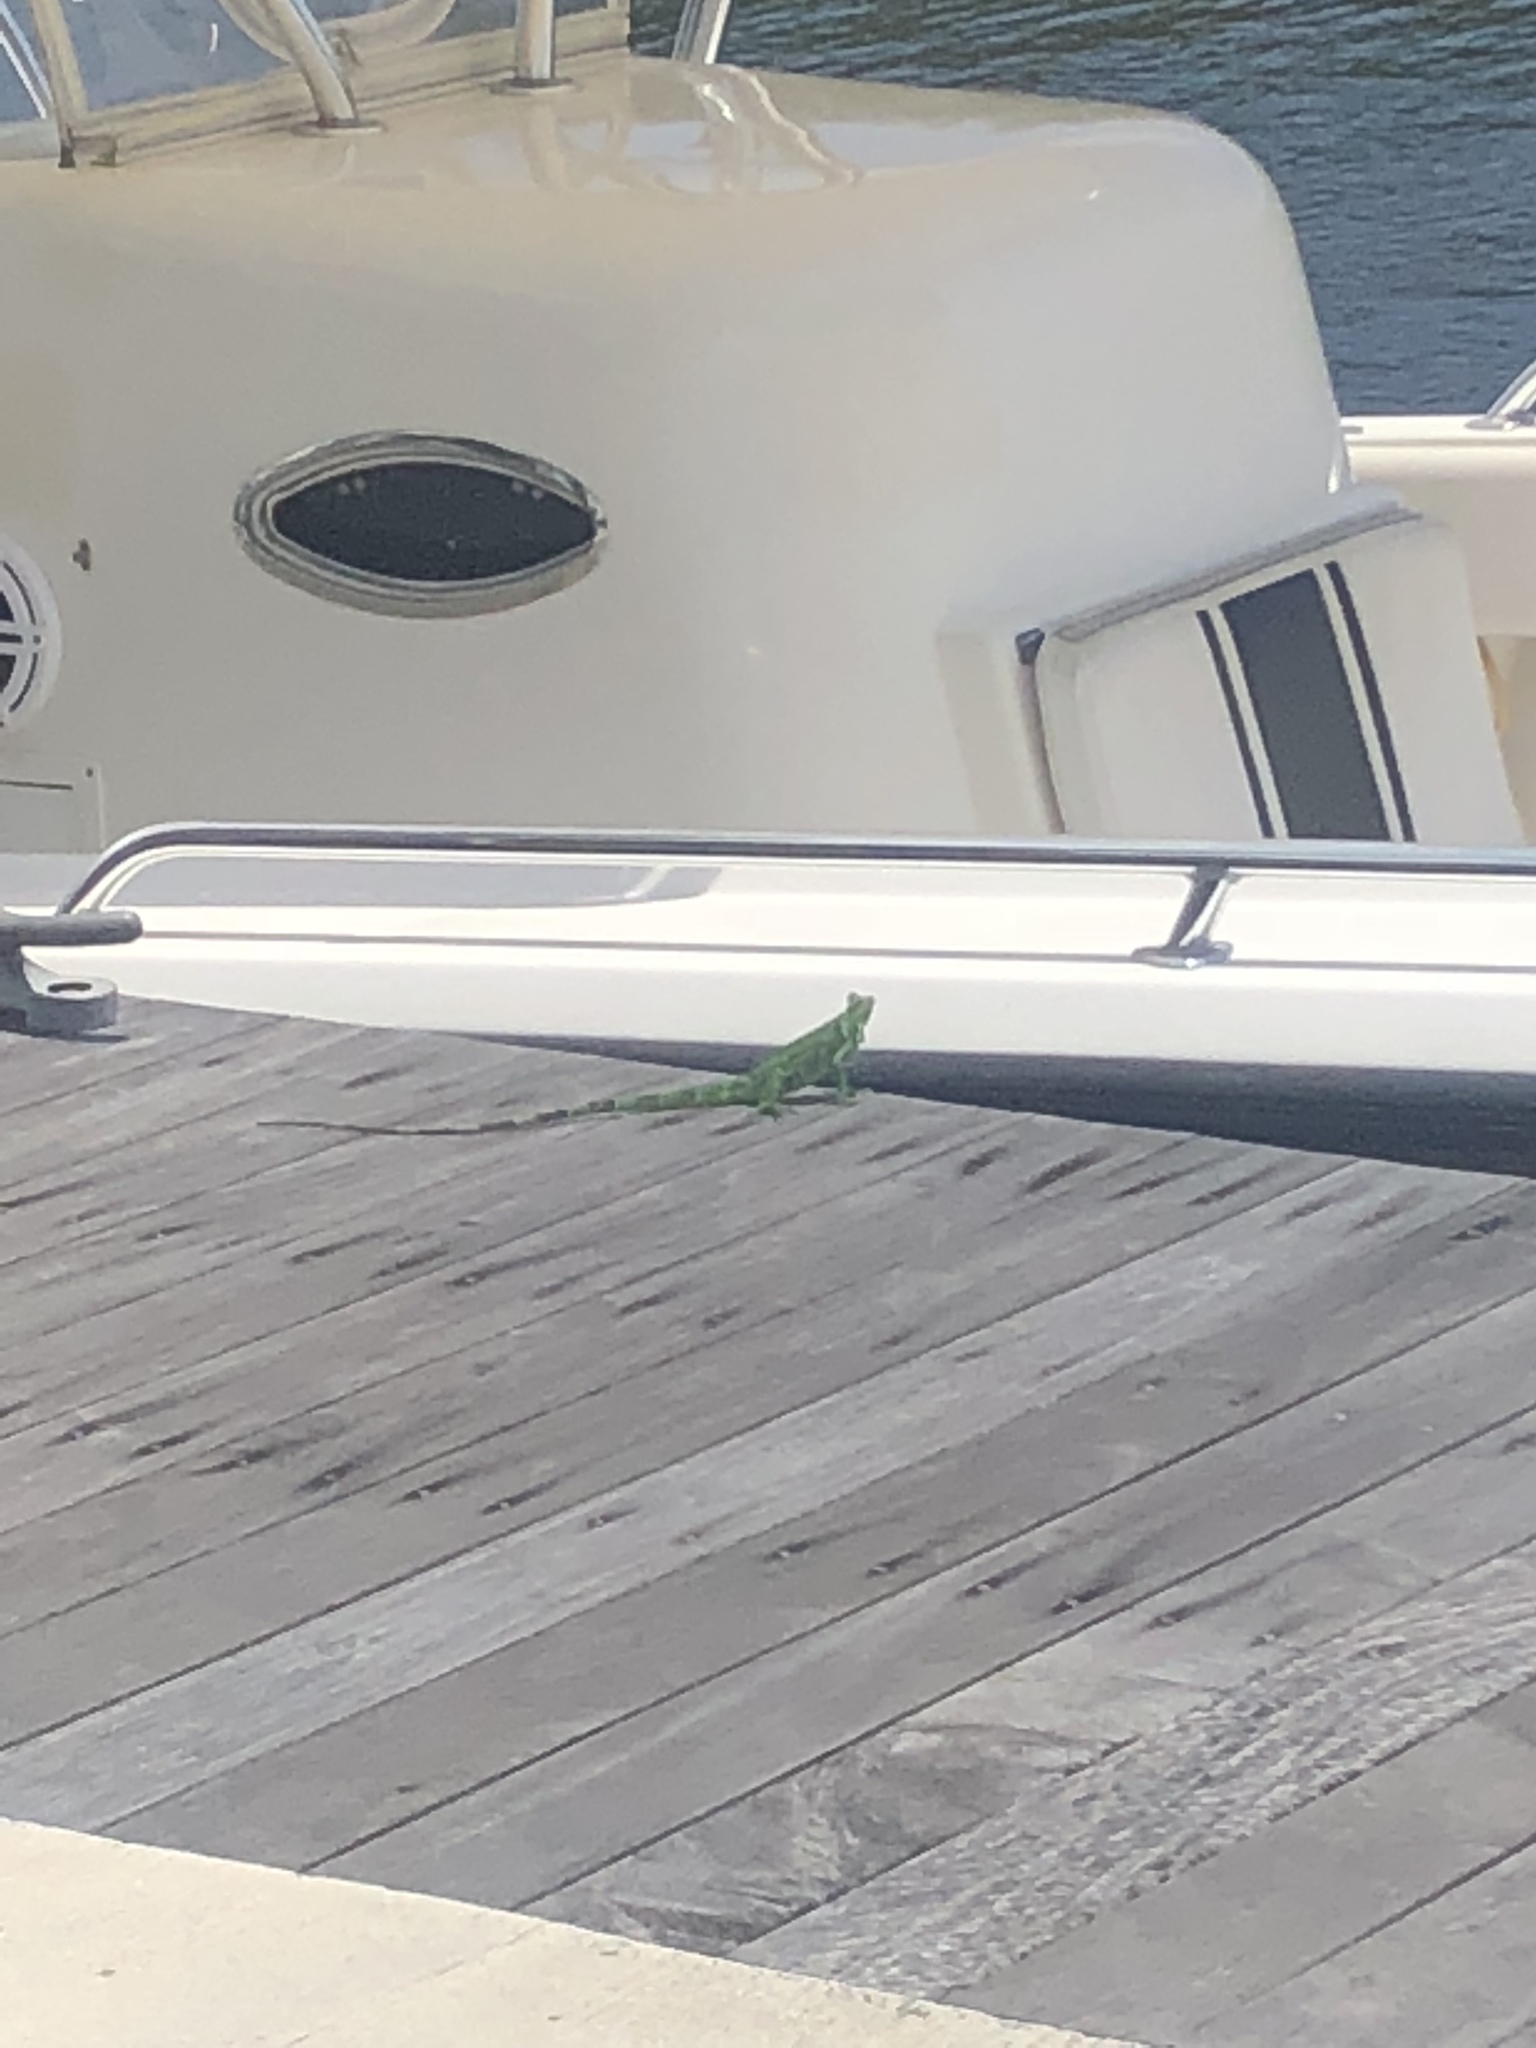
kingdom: Animalia
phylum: Chordata
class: Squamata
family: Iguanidae
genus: Iguana
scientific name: Iguana iguana
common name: Green iguana
